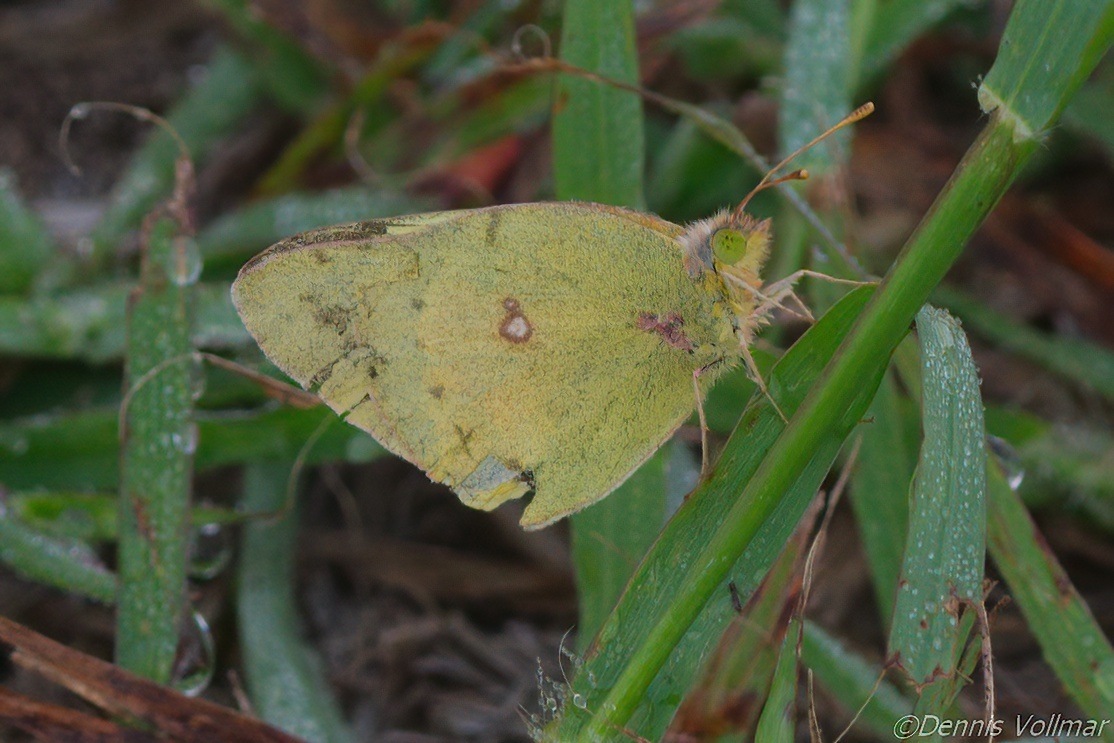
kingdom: Animalia
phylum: Arthropoda
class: Insecta
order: Lepidoptera
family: Pieridae
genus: Colias
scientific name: Colias eurytheme
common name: Alfalfa butterfly
